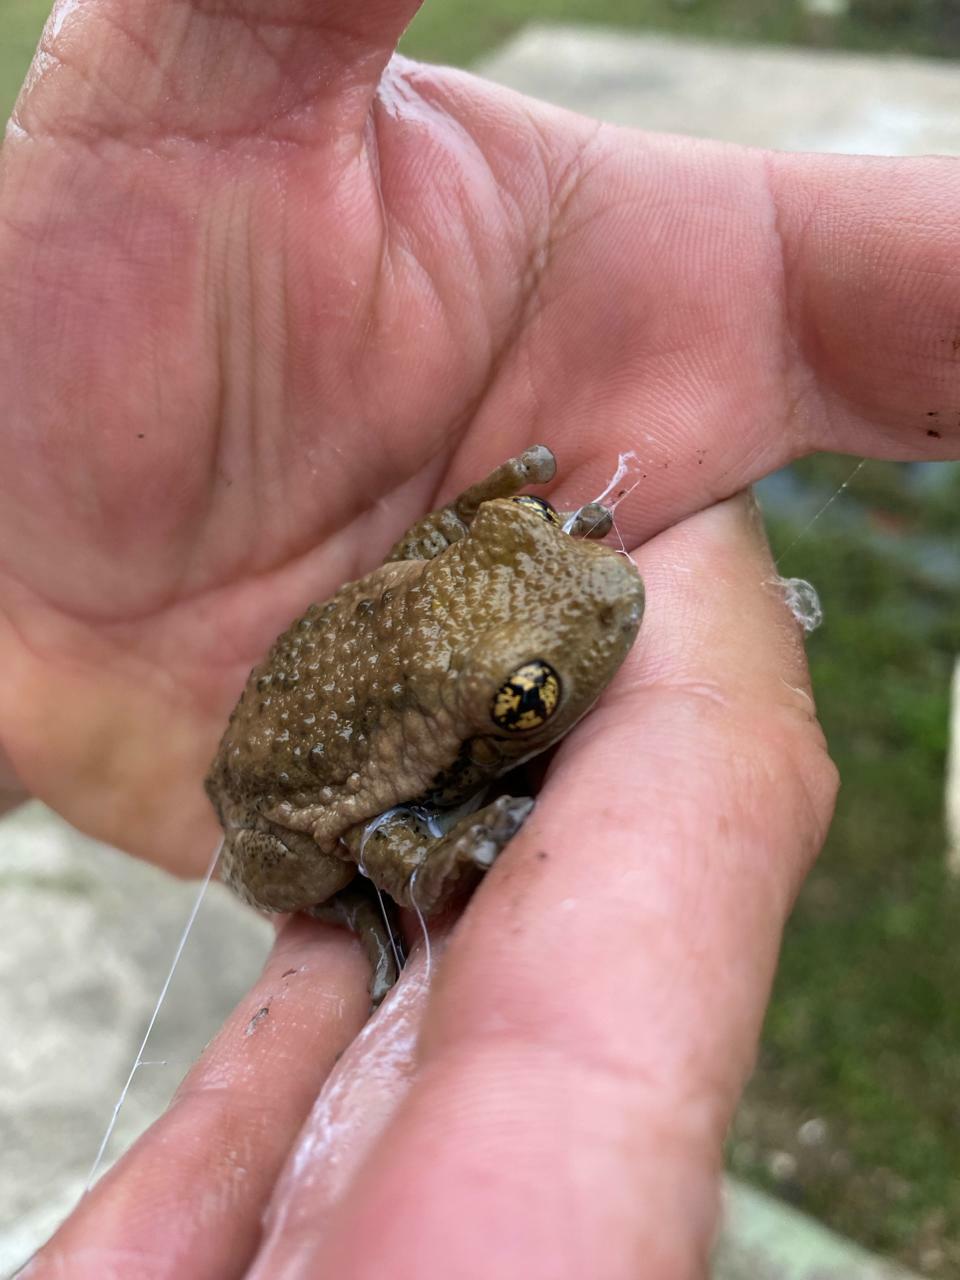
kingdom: Animalia
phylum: Chordata
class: Amphibia
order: Anura
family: Hylidae
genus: Trachycephalus
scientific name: Trachycephalus vermiculatus
